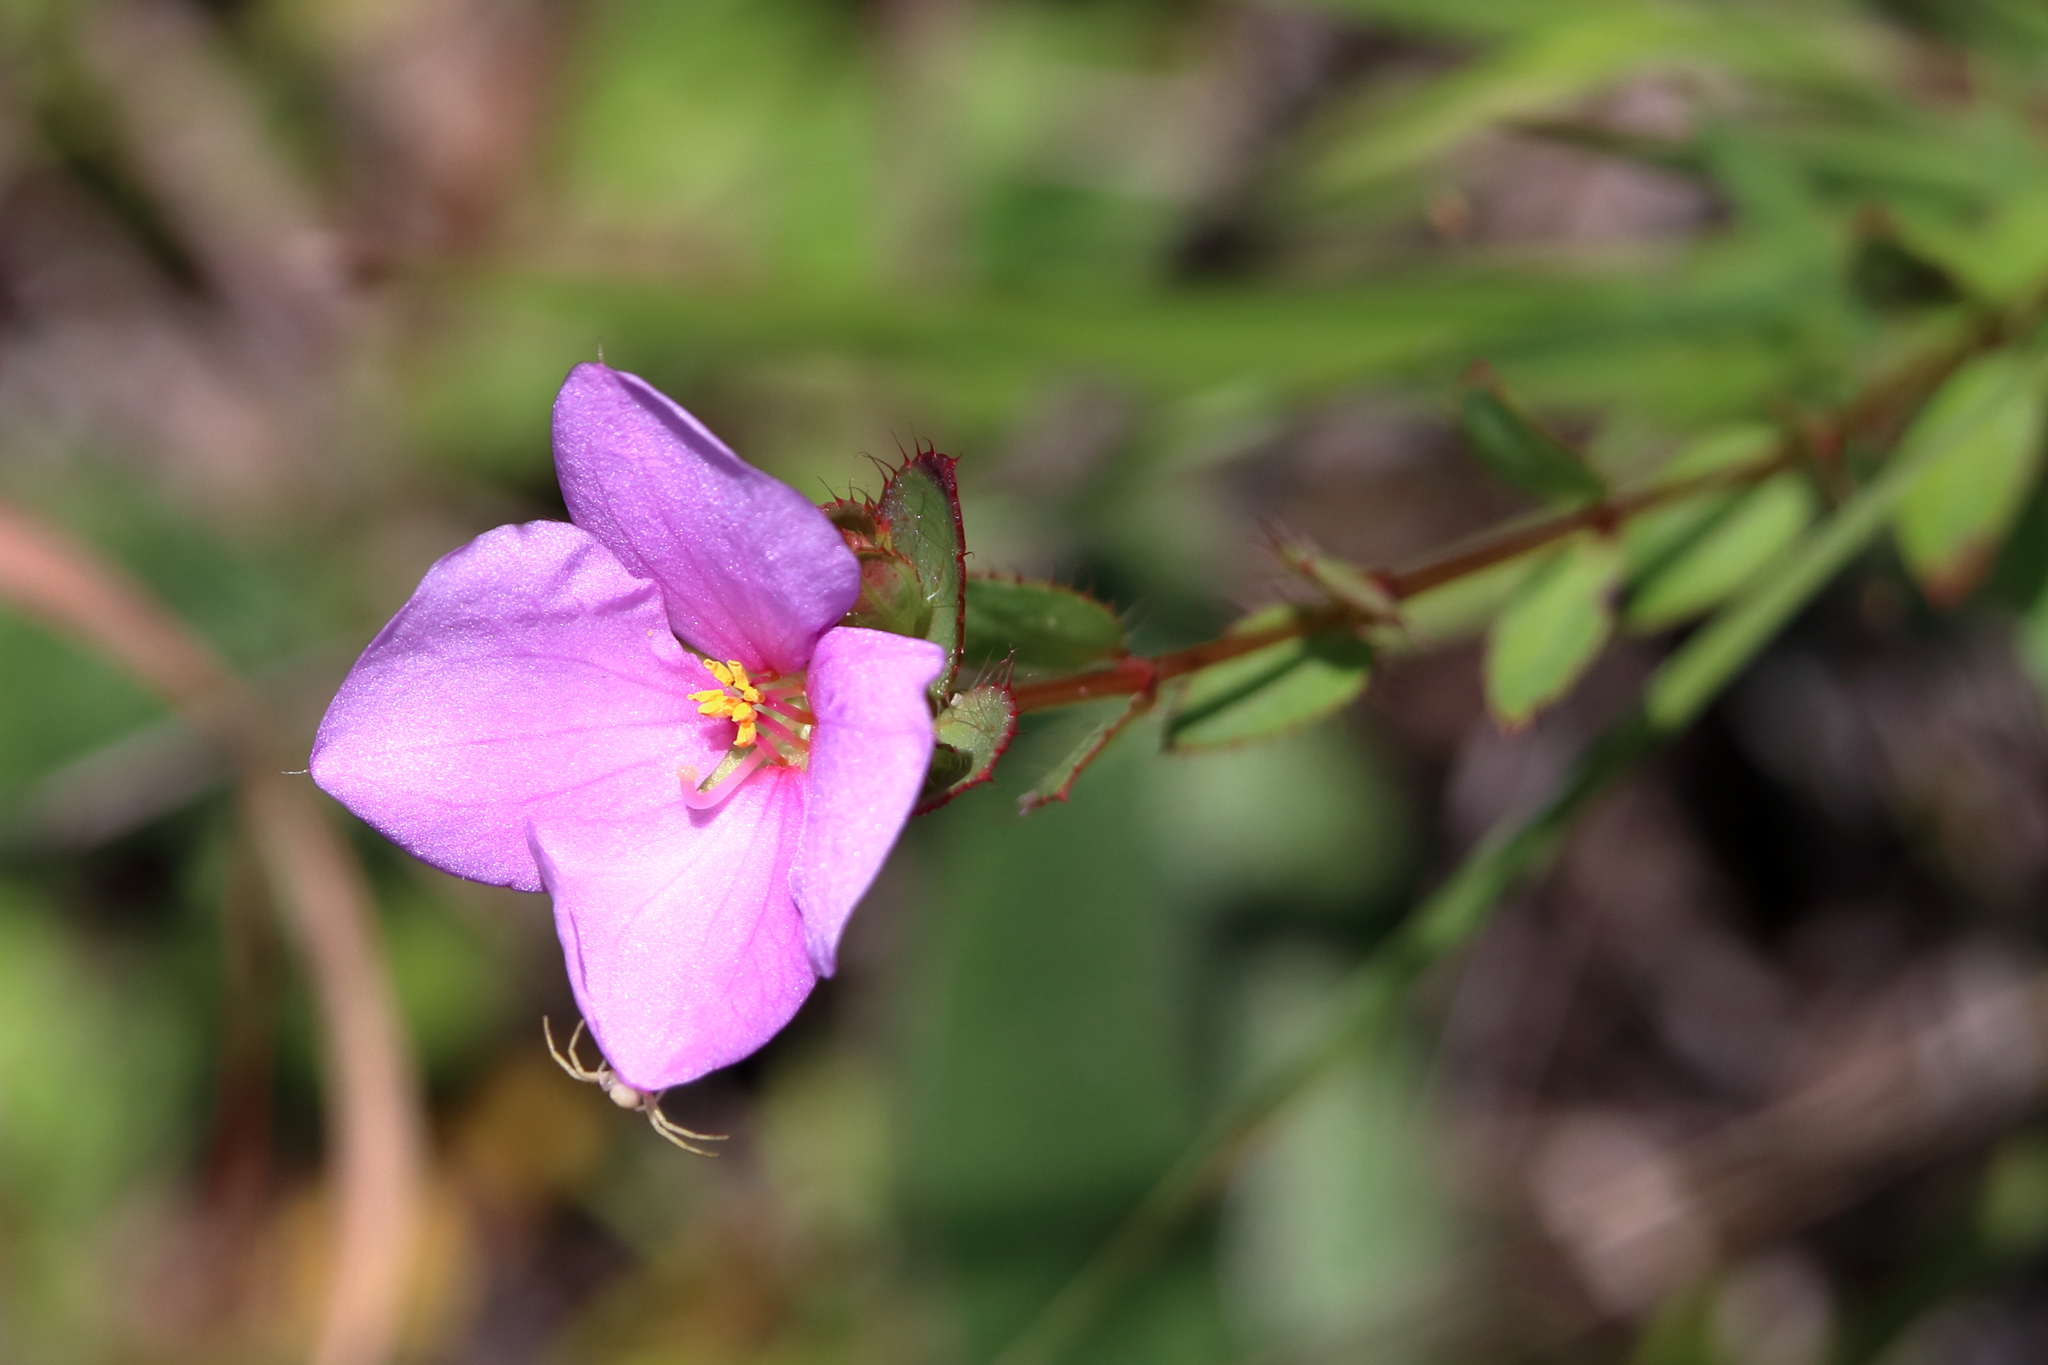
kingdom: Plantae
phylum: Tracheophyta
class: Magnoliopsida
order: Myrtales
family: Melastomataceae
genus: Rhexia
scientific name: Rhexia petiolata
